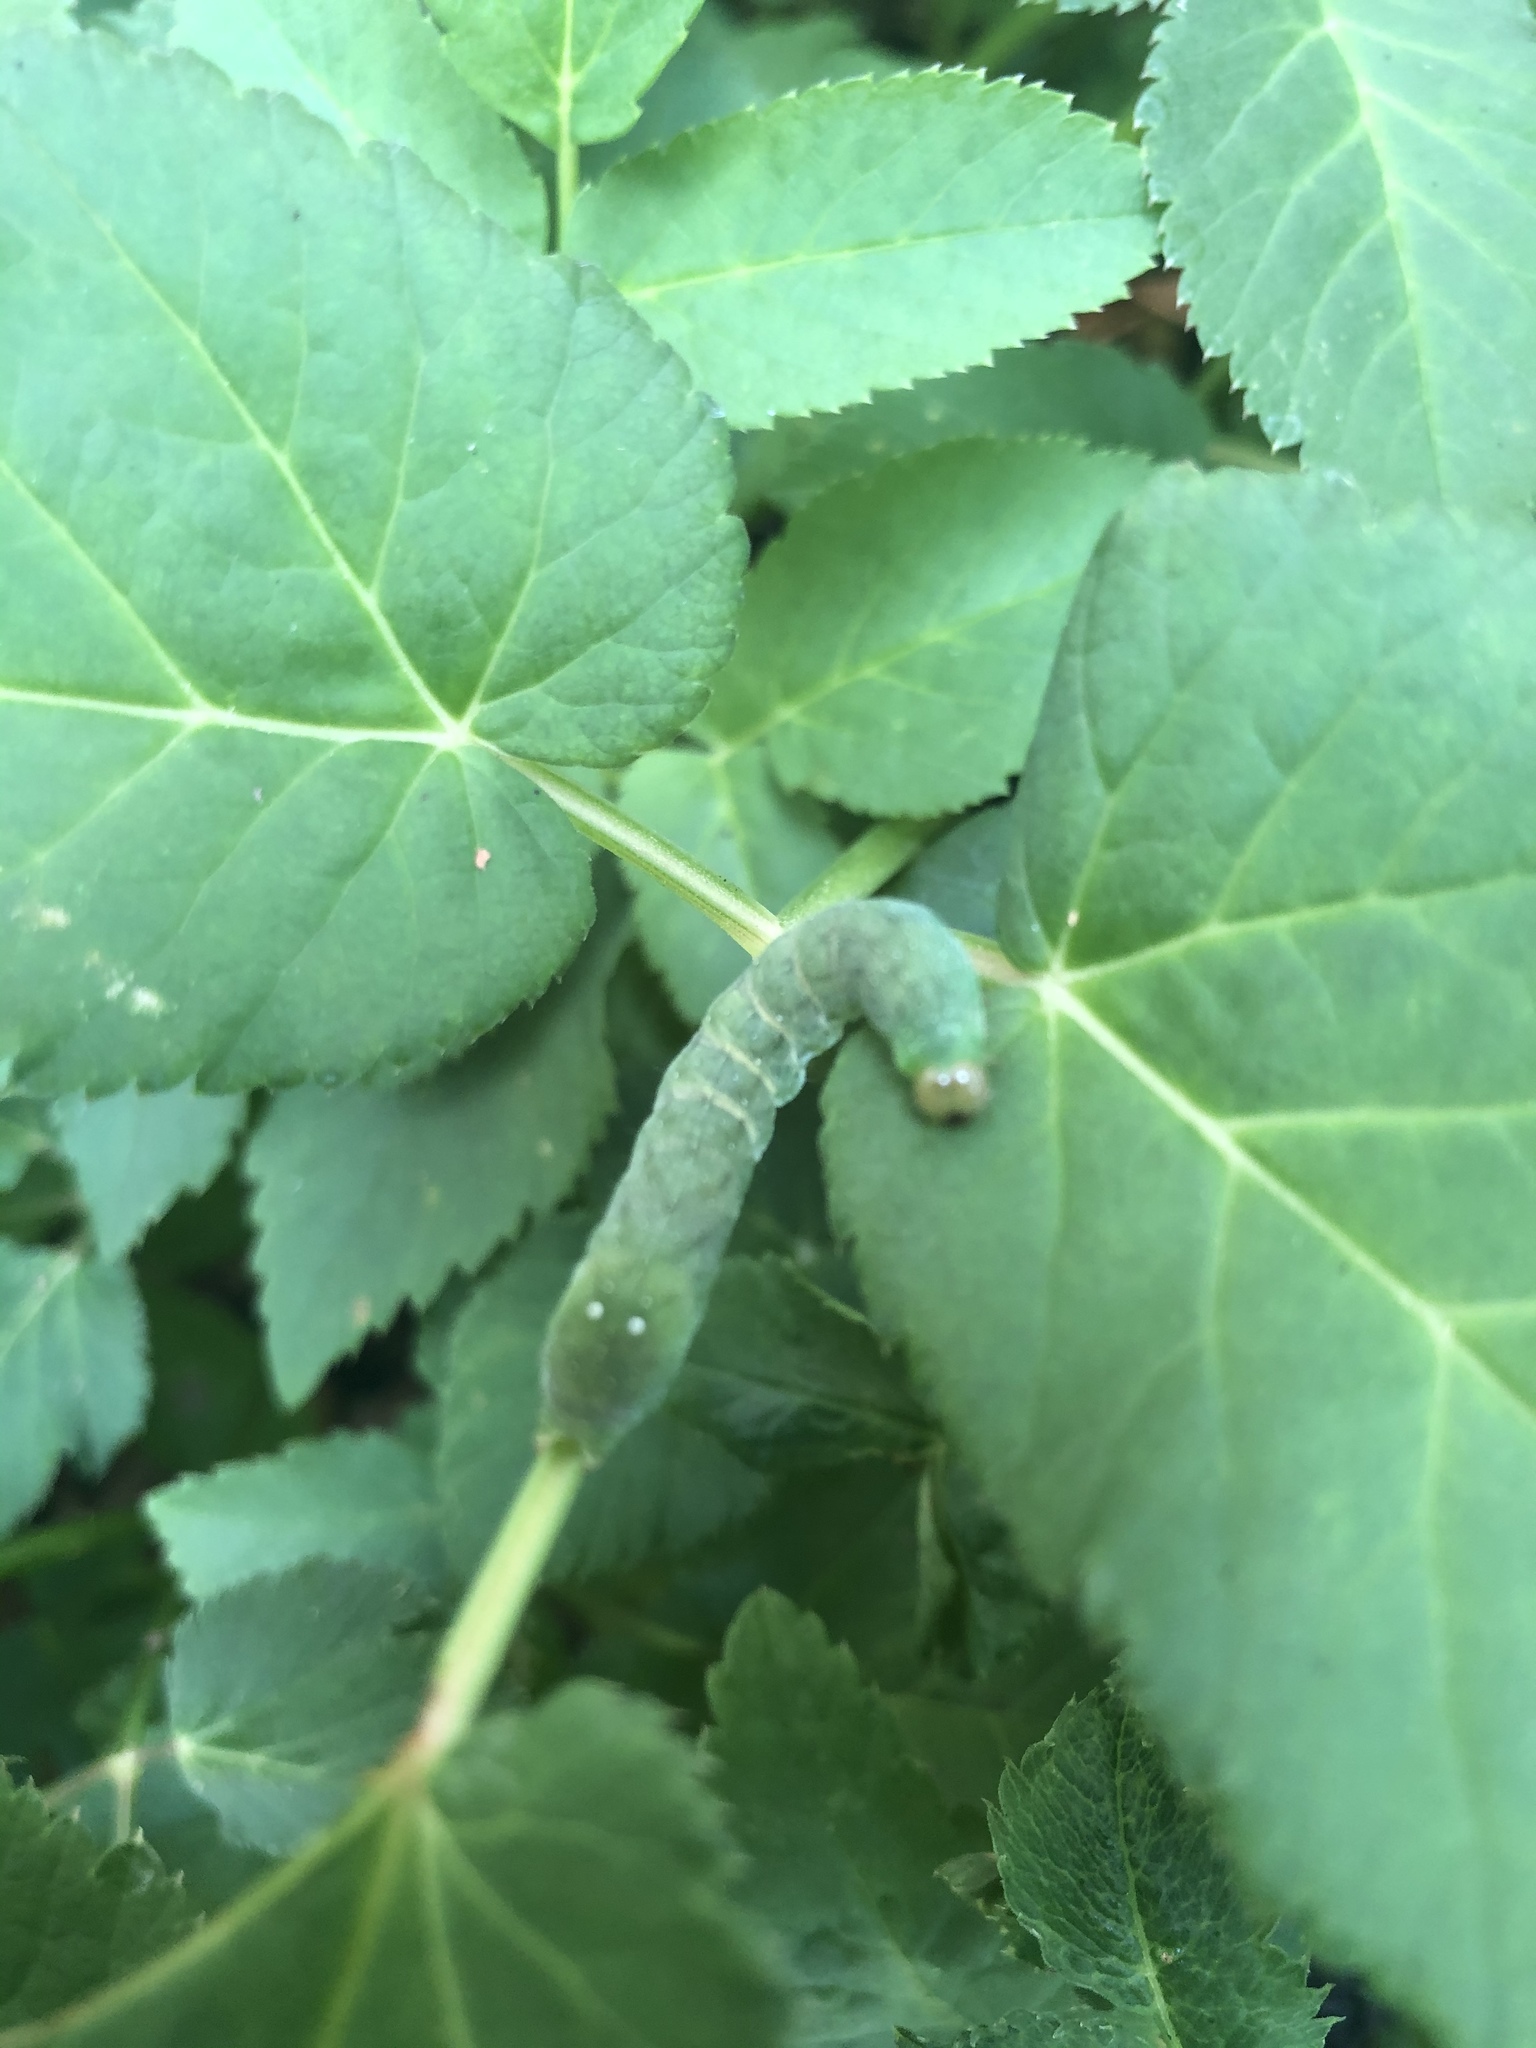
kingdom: Animalia
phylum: Arthropoda
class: Insecta
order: Lepidoptera
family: Noctuidae
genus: Euplexia
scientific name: Euplexia benesimilis
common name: American angle shades
